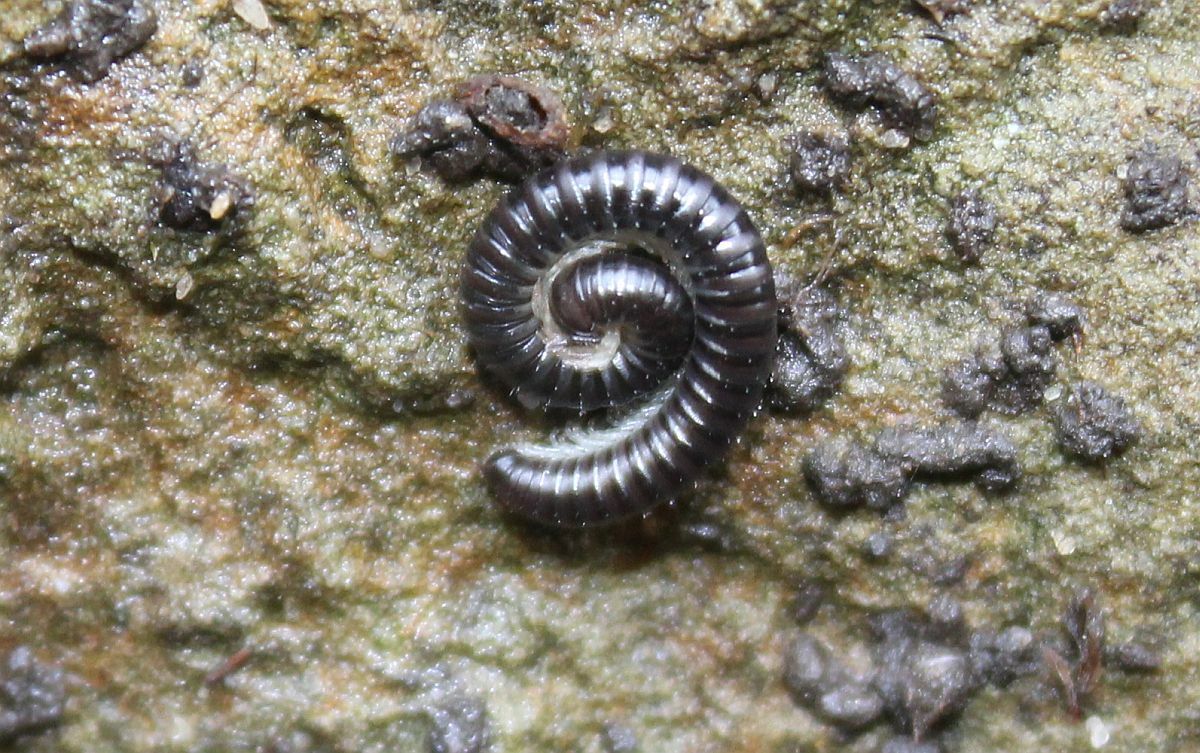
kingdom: Animalia
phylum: Arthropoda
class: Diplopoda
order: Julida
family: Julidae
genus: Tachypodoiulus
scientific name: Tachypodoiulus niger
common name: White-legged snake millipede
